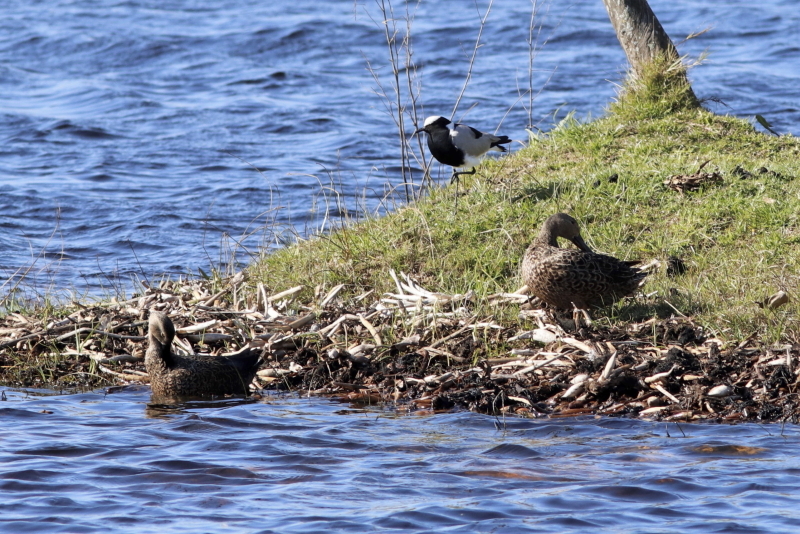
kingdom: Animalia
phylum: Chordata
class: Aves
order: Anseriformes
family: Anatidae
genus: Spatula
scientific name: Spatula smithii
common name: Cape shoveler
